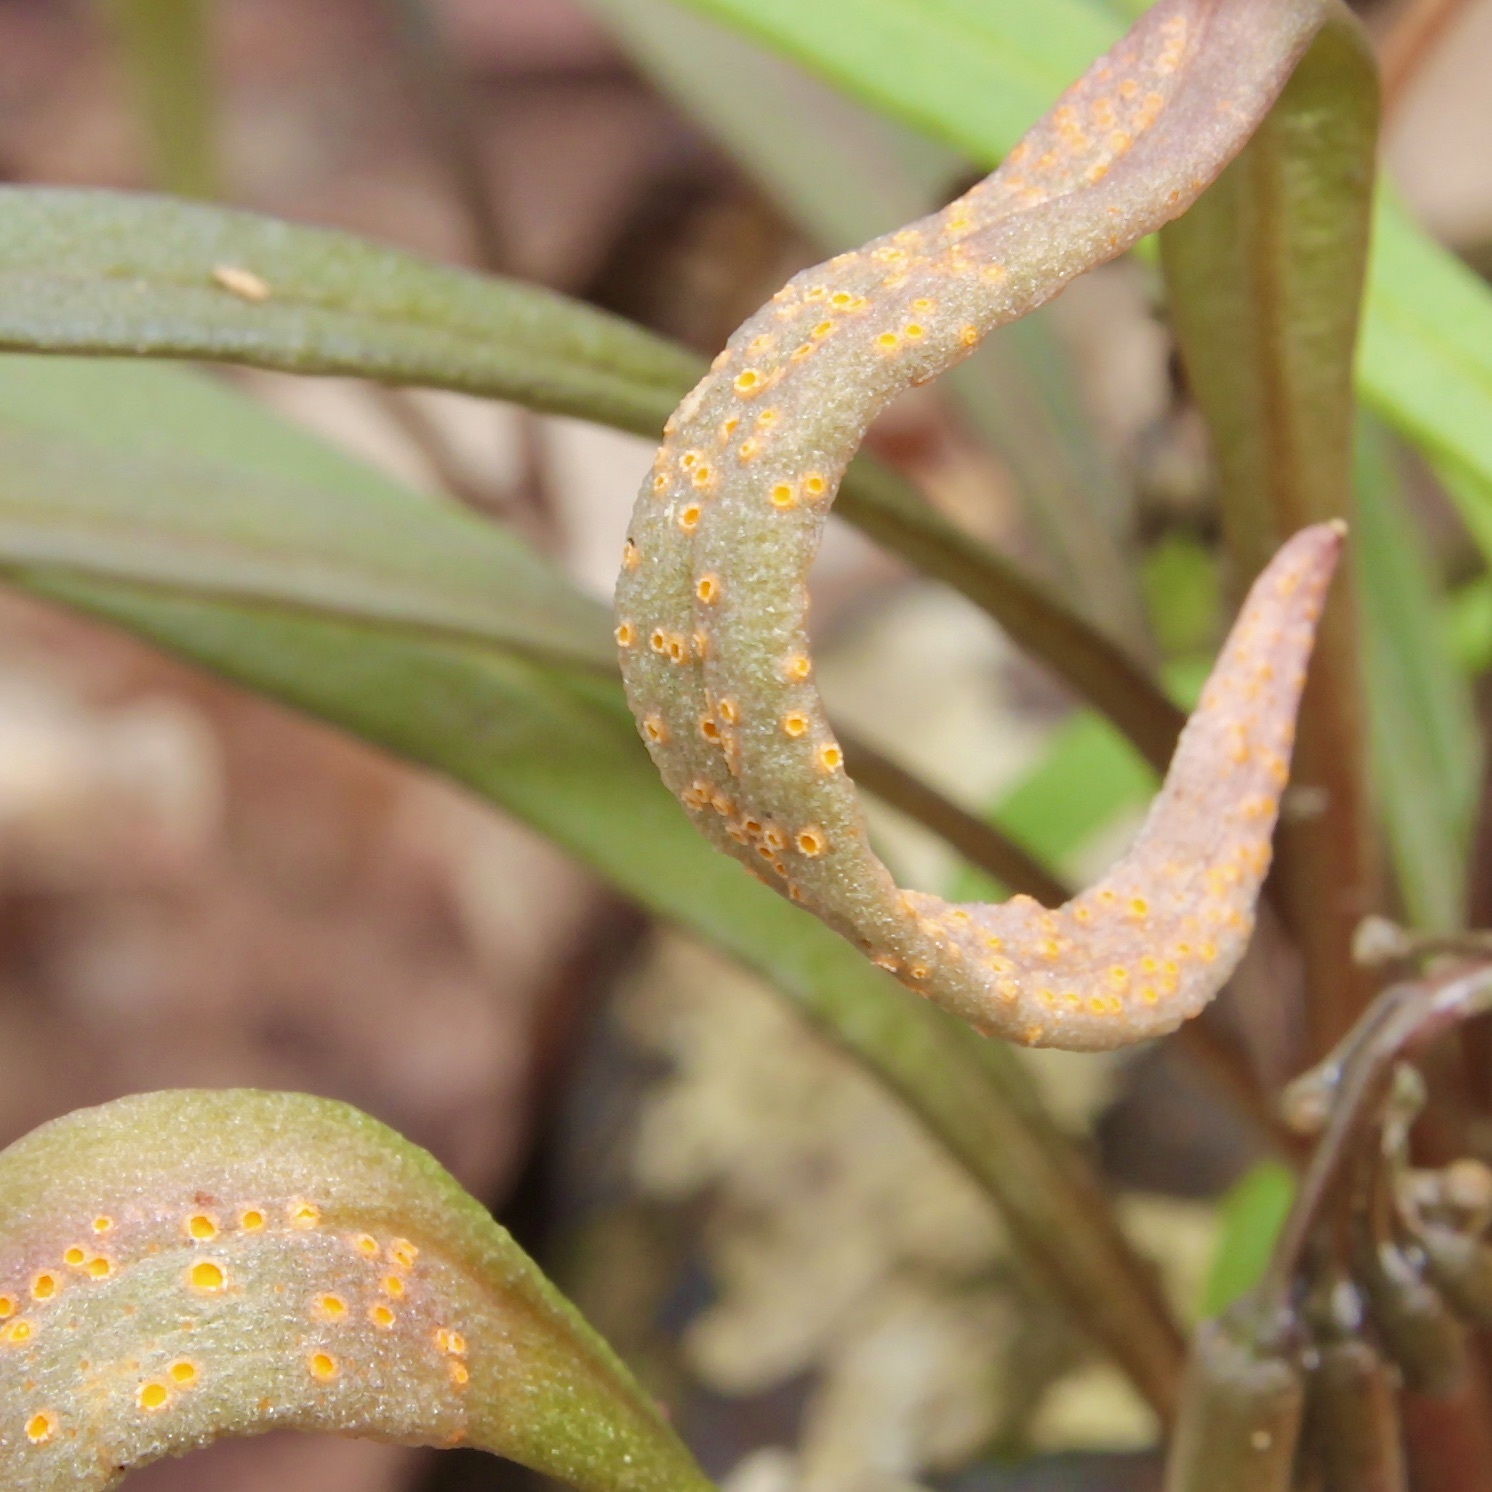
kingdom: Fungi
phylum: Basidiomycota
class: Pucciniomycetes
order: Pucciniales
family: Pucciniaceae
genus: Puccinia
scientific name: Puccinia mariae-wilsoniae
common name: Spring beauty rust
